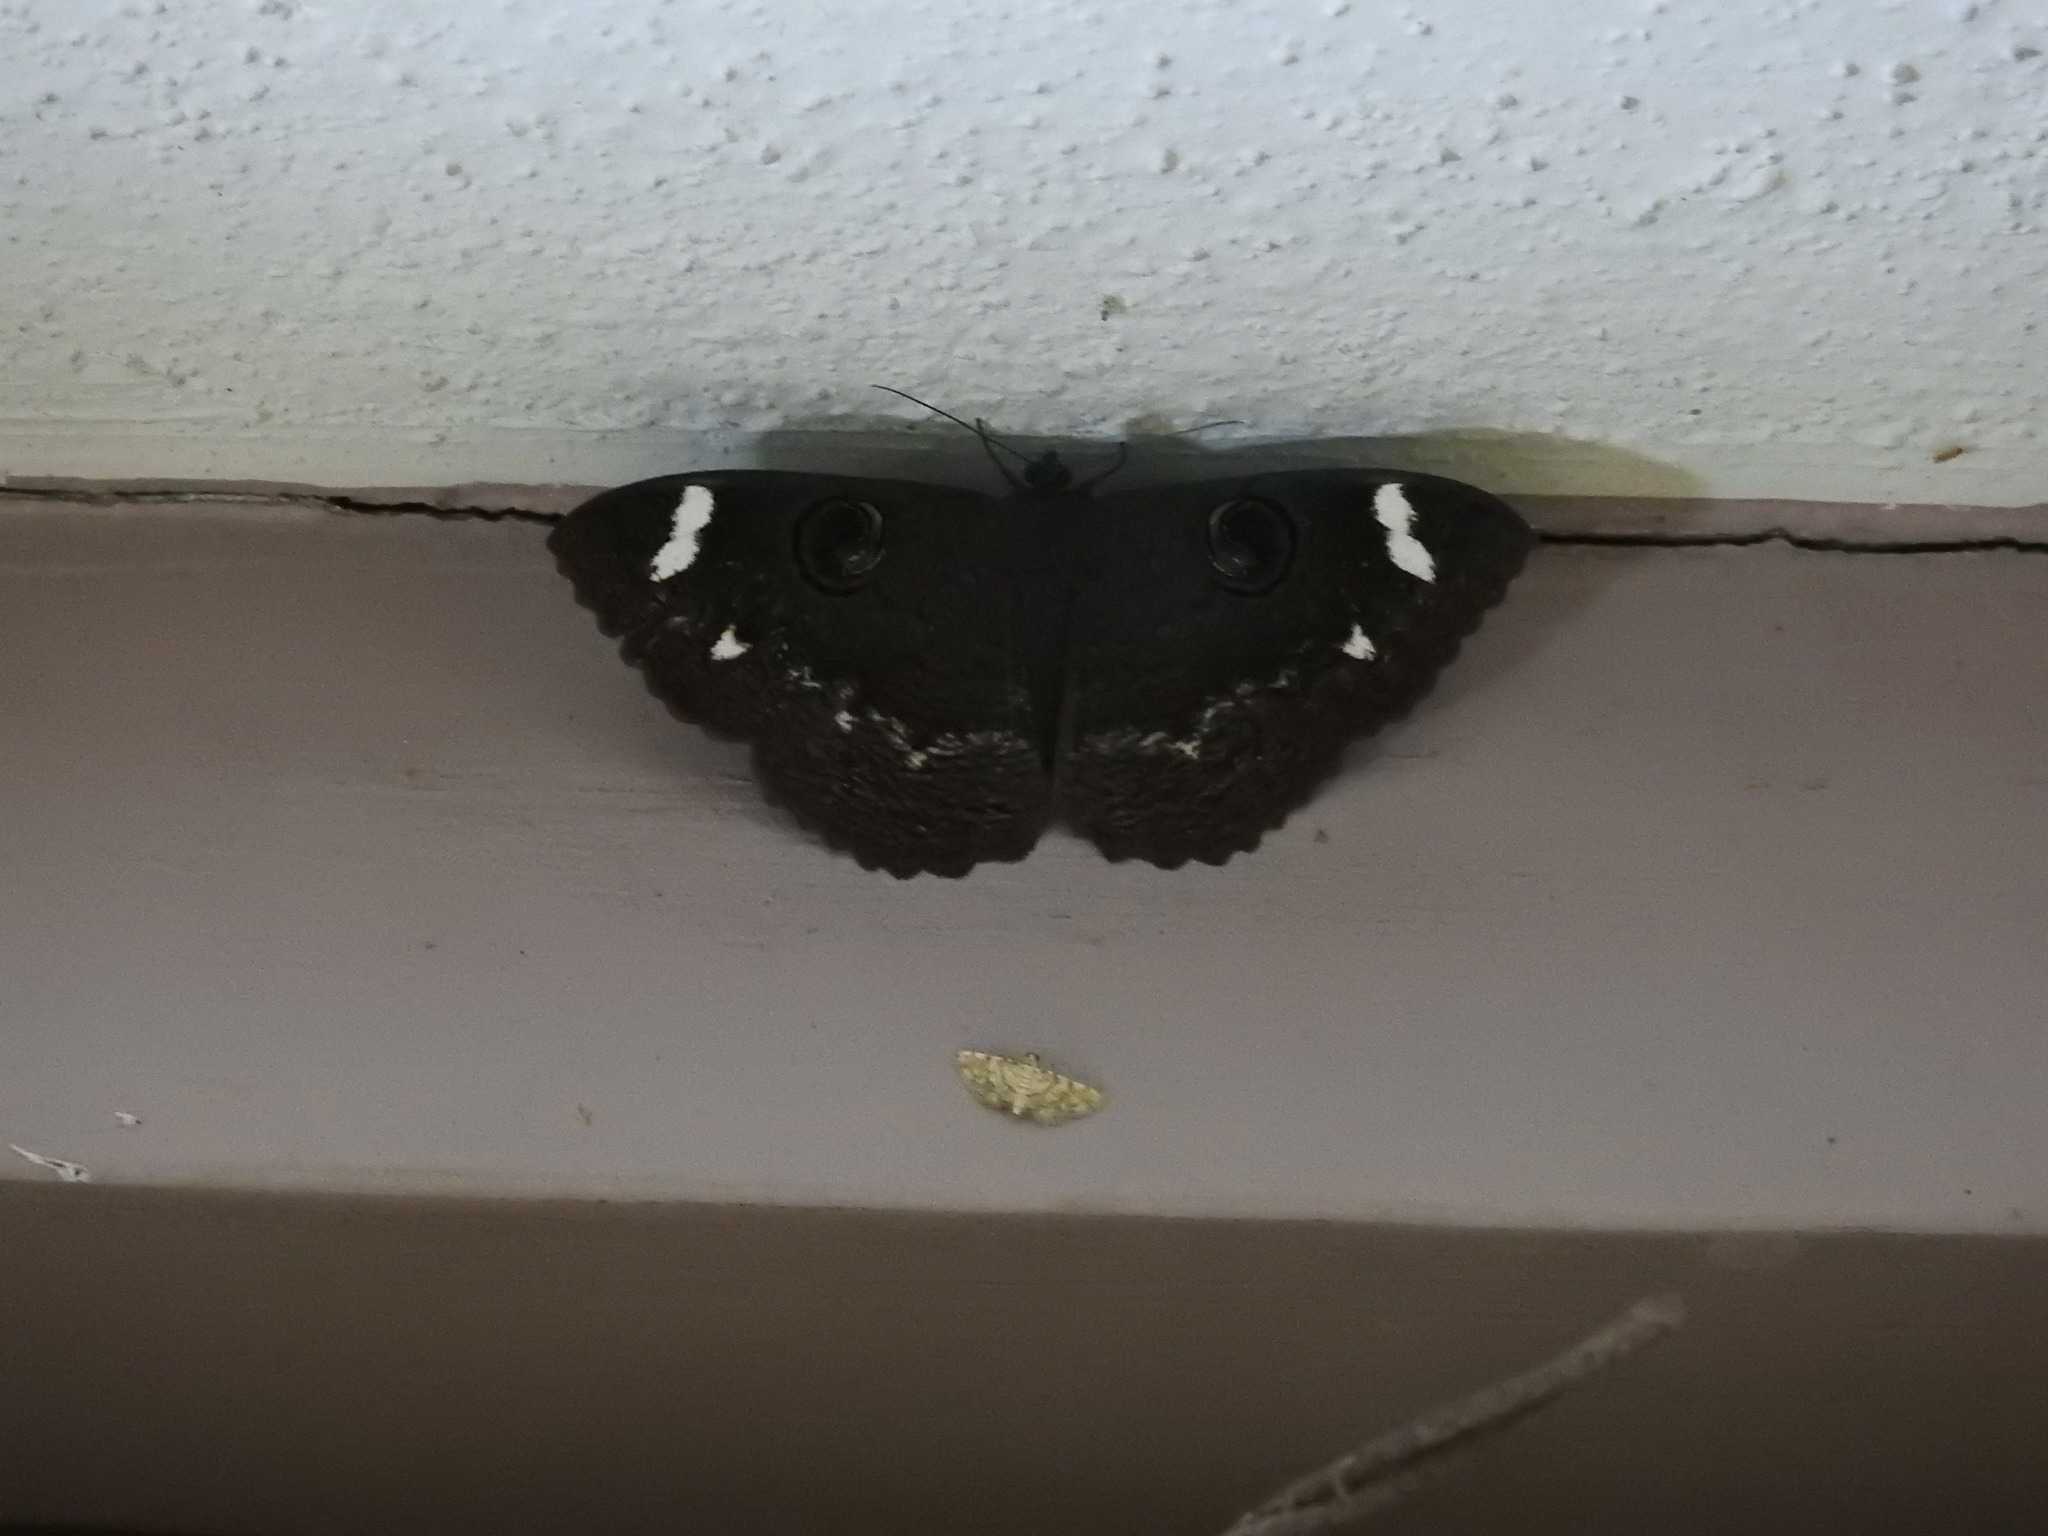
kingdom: Animalia
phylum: Arthropoda
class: Insecta
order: Lepidoptera
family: Erebidae
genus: Erebus
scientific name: Erebus hieroglyphica
